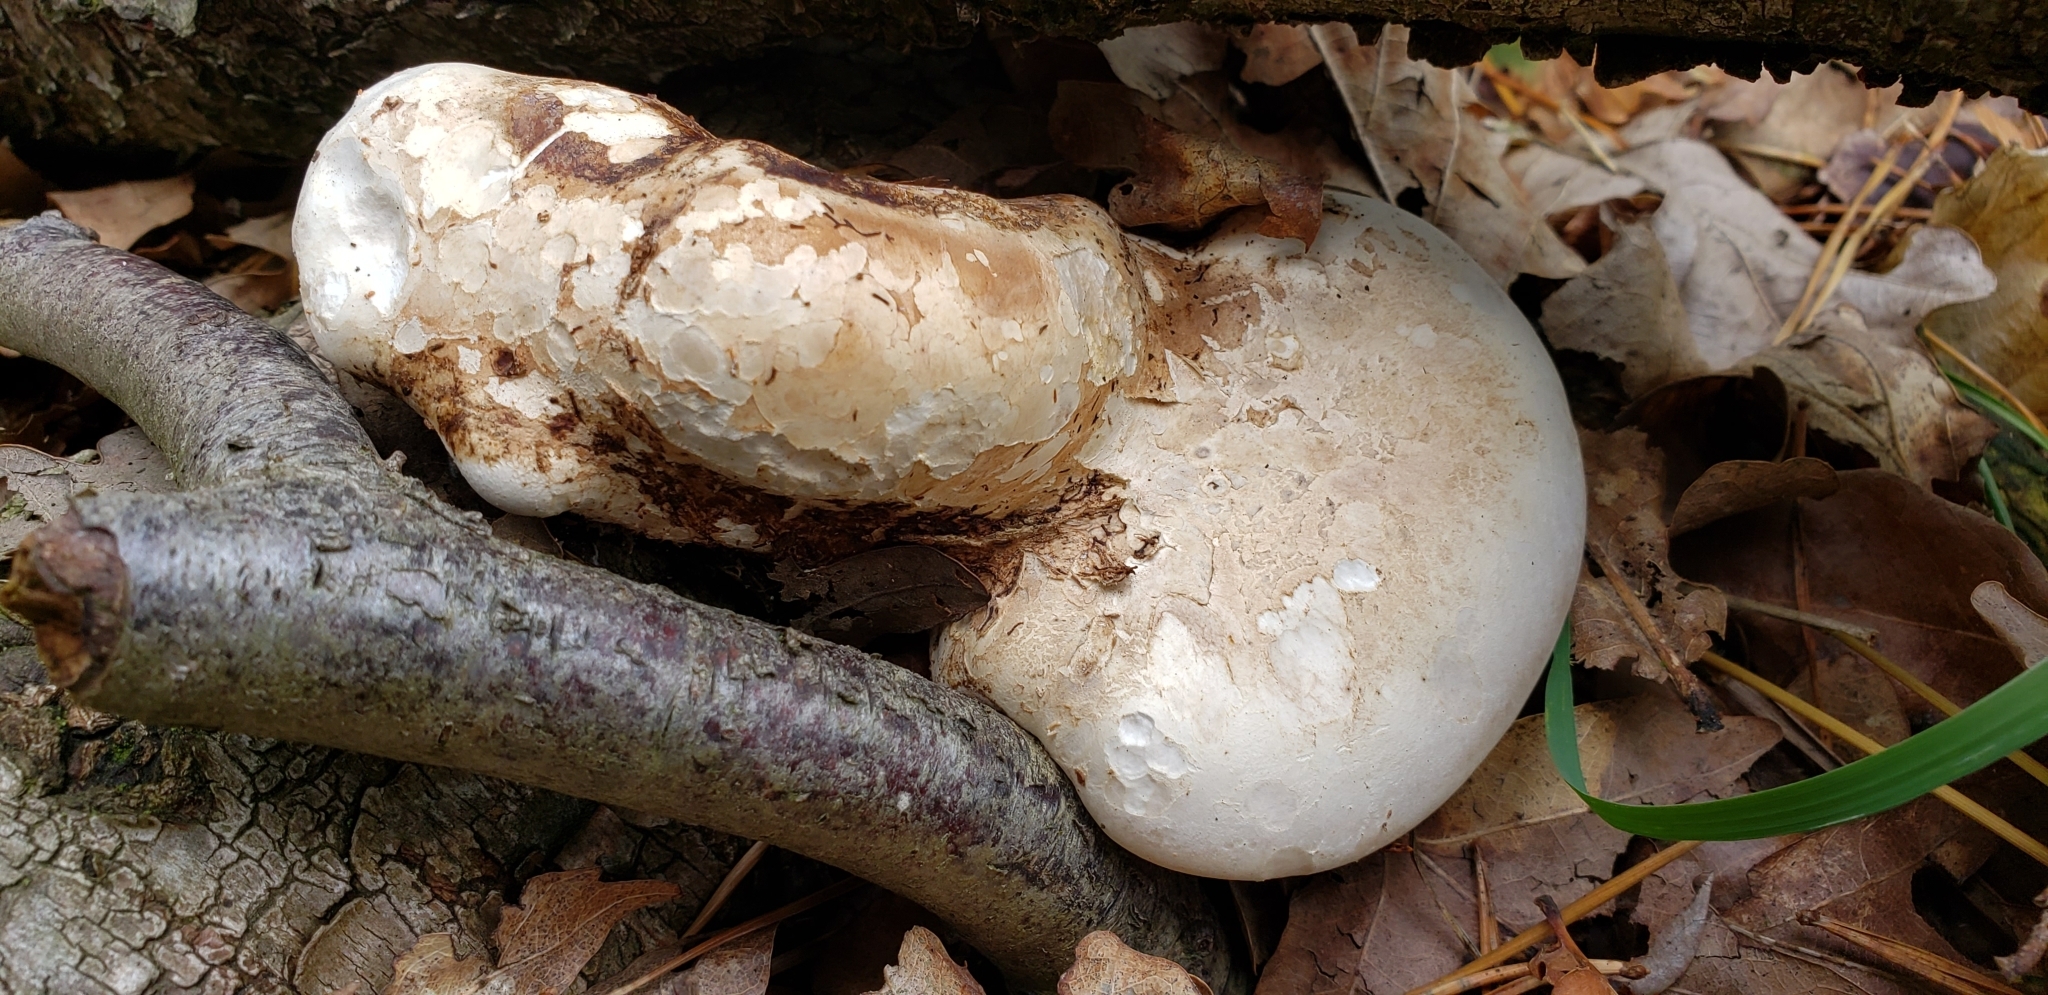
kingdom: Fungi
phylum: Basidiomycota
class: Agaricomycetes
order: Polyporales
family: Fomitopsidaceae
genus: Fomitopsis
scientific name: Fomitopsis betulina
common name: Birch polypore
